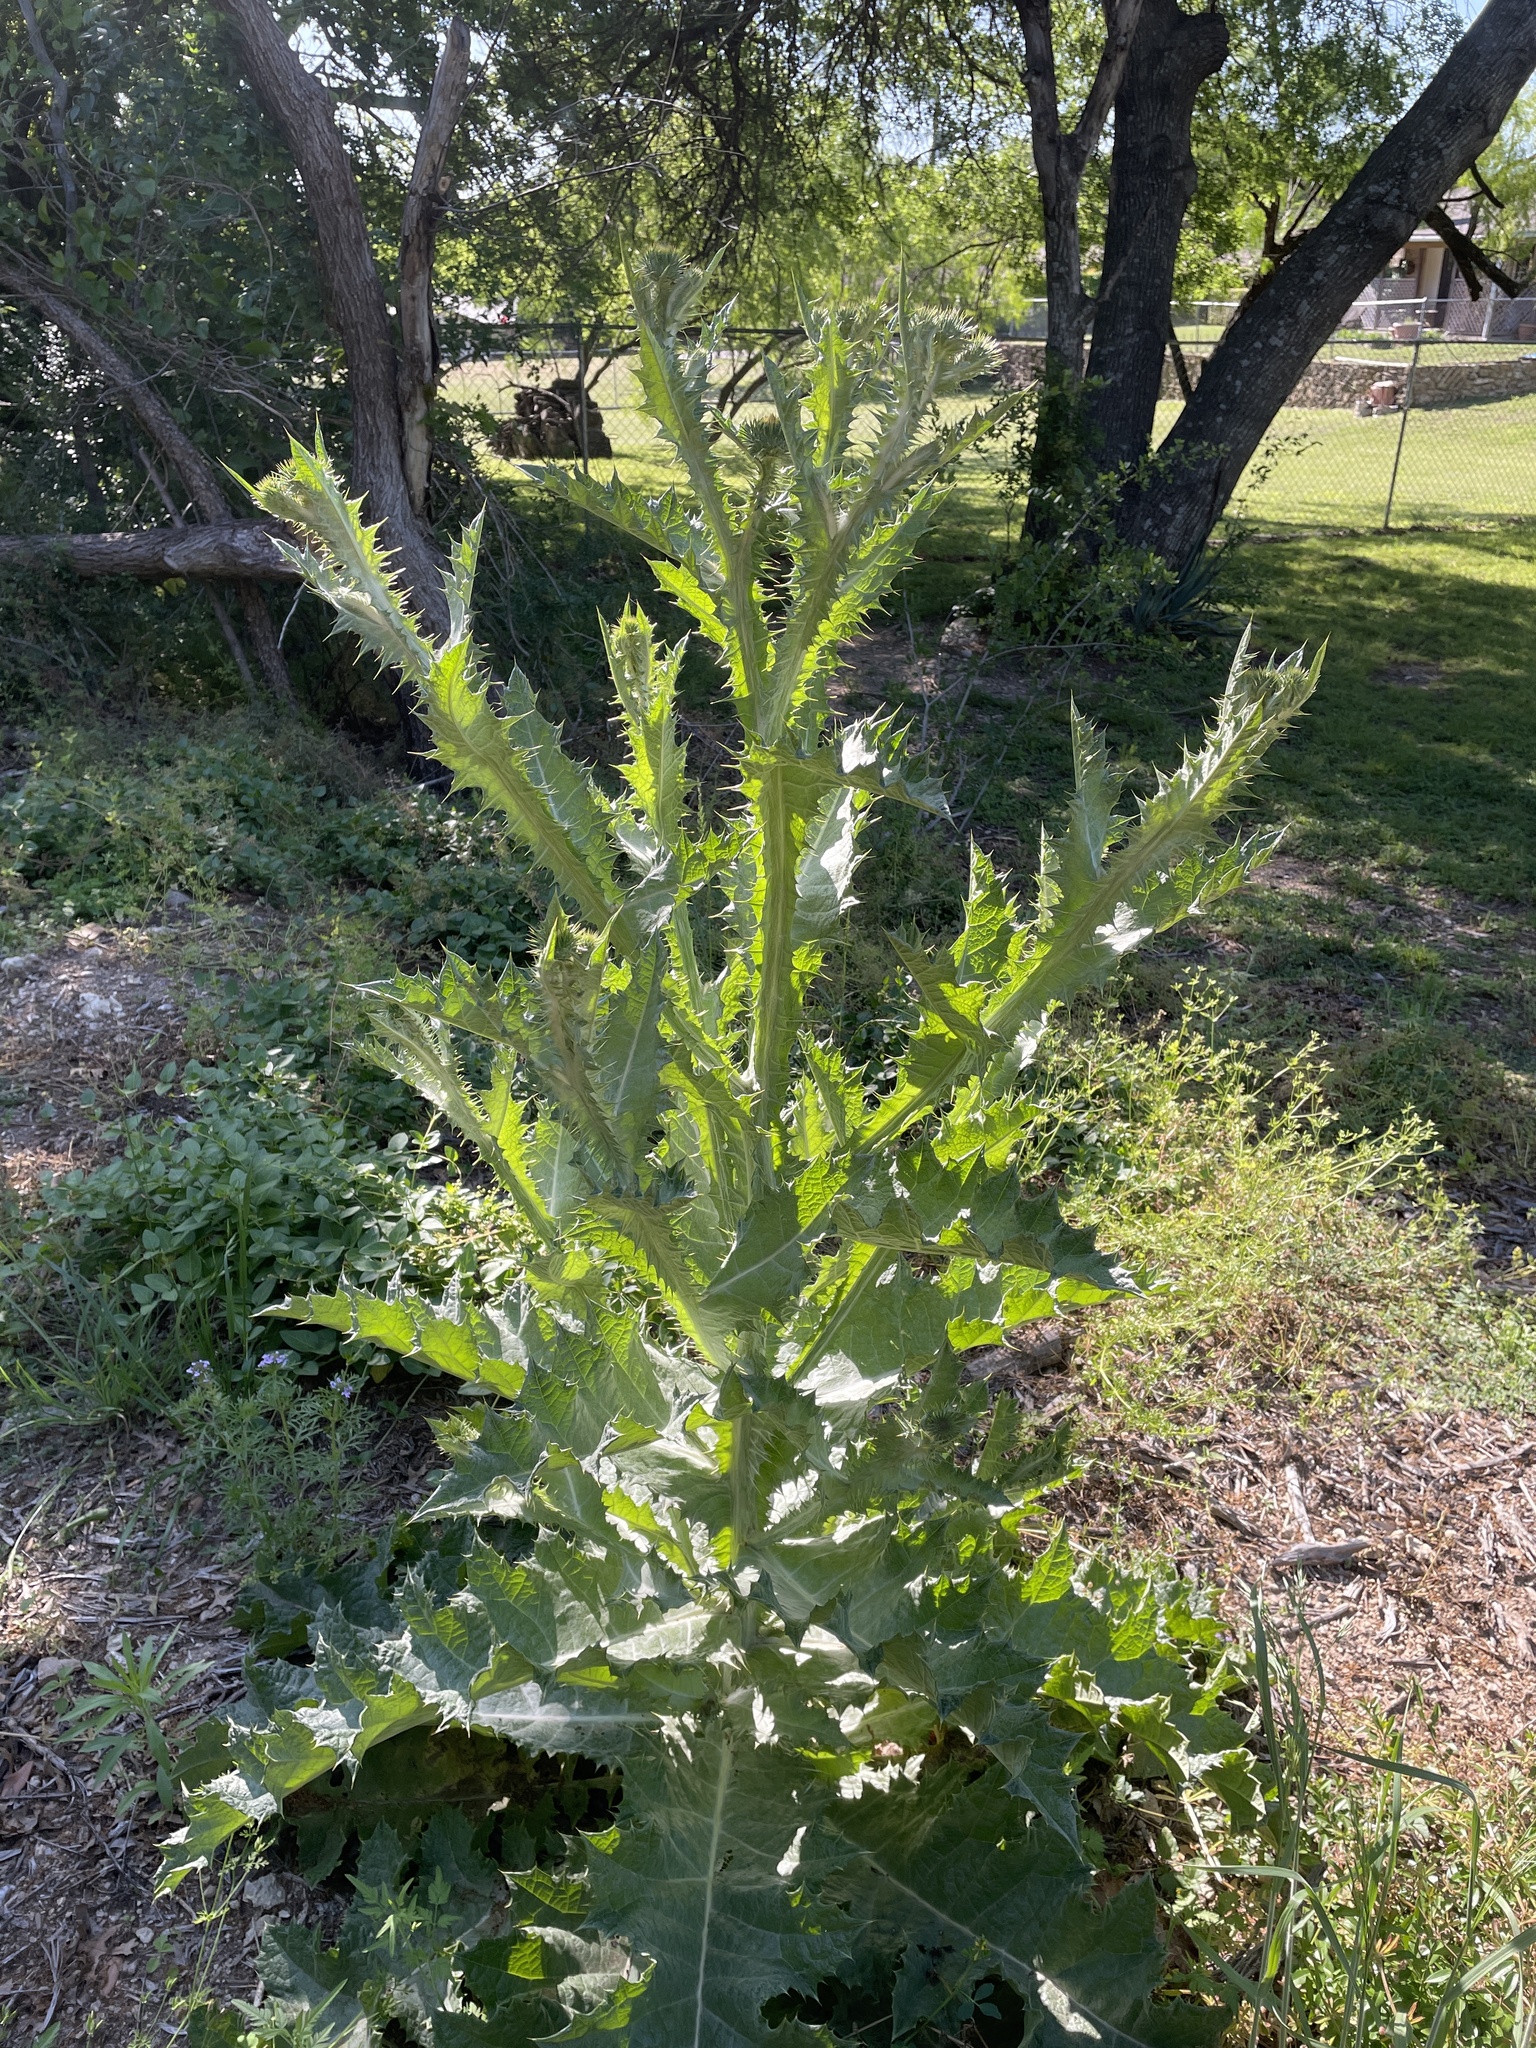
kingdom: Plantae
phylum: Tracheophyta
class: Magnoliopsida
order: Asterales
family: Asteraceae
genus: Onopordum
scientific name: Onopordum acanthium
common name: Scotch thistle
